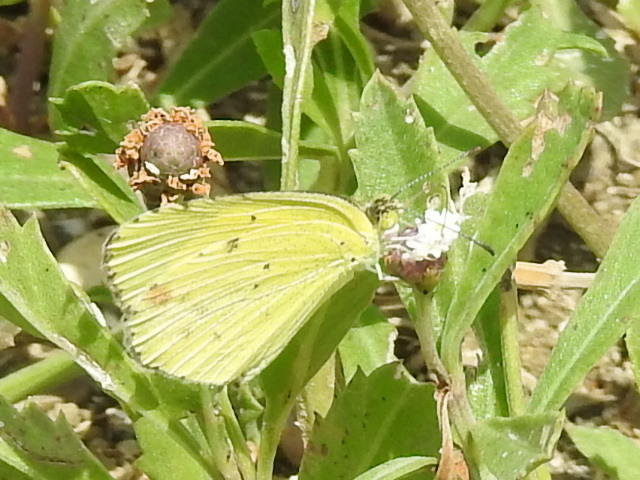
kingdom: Animalia
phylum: Arthropoda
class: Insecta
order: Lepidoptera
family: Pieridae
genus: Pyrisitia
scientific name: Pyrisitia lisa
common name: Little yellow
